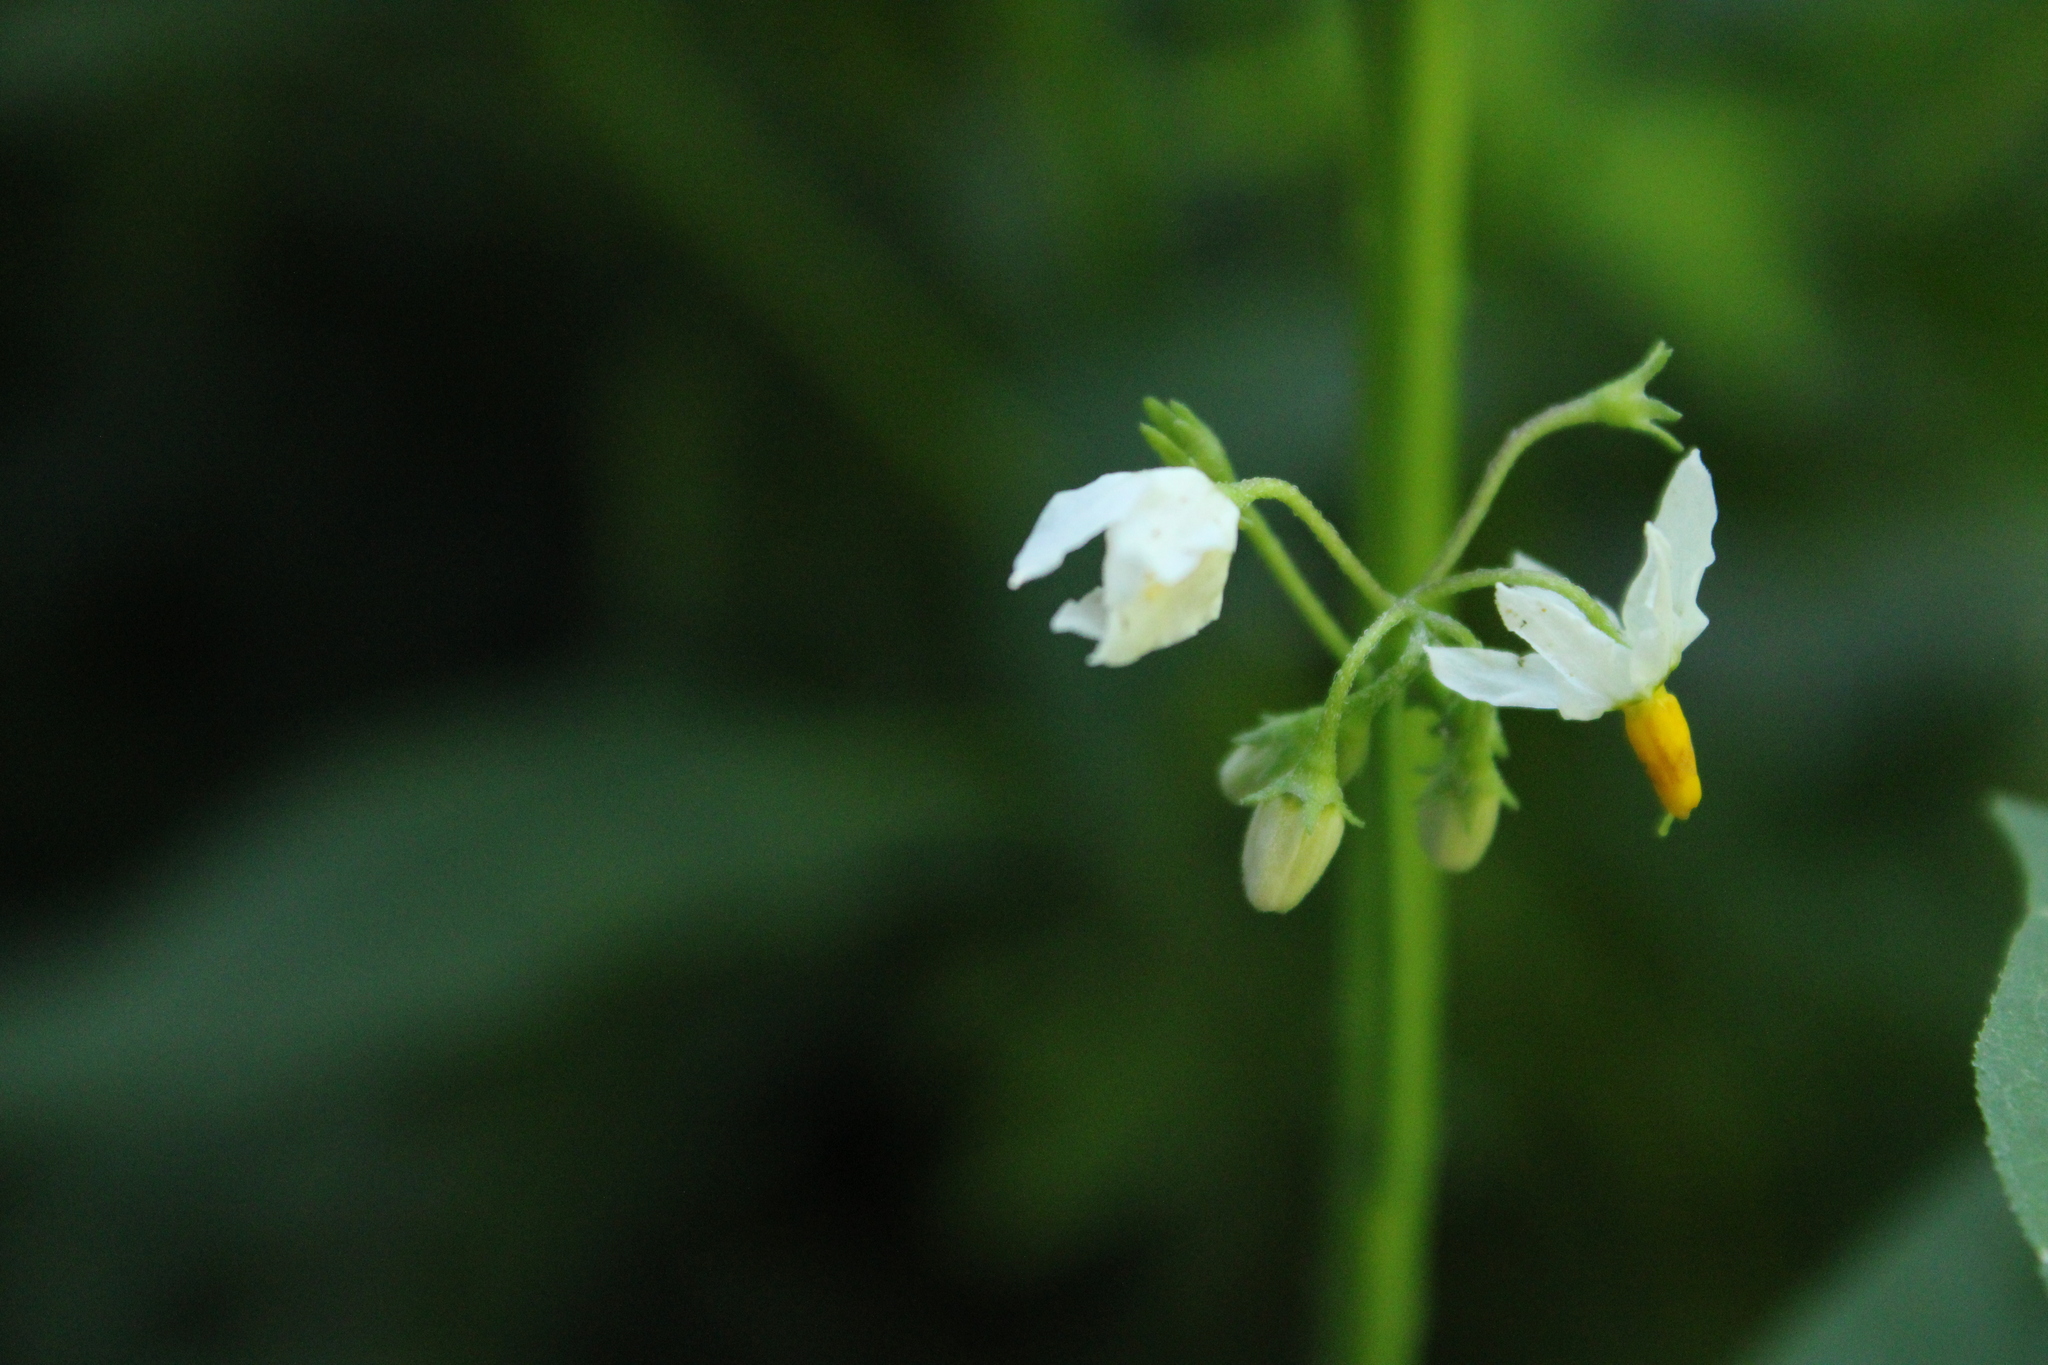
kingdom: Plantae
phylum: Tracheophyta
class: Magnoliopsida
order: Solanales
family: Solanaceae
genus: Solanum
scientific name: Solanum pilcomayense
